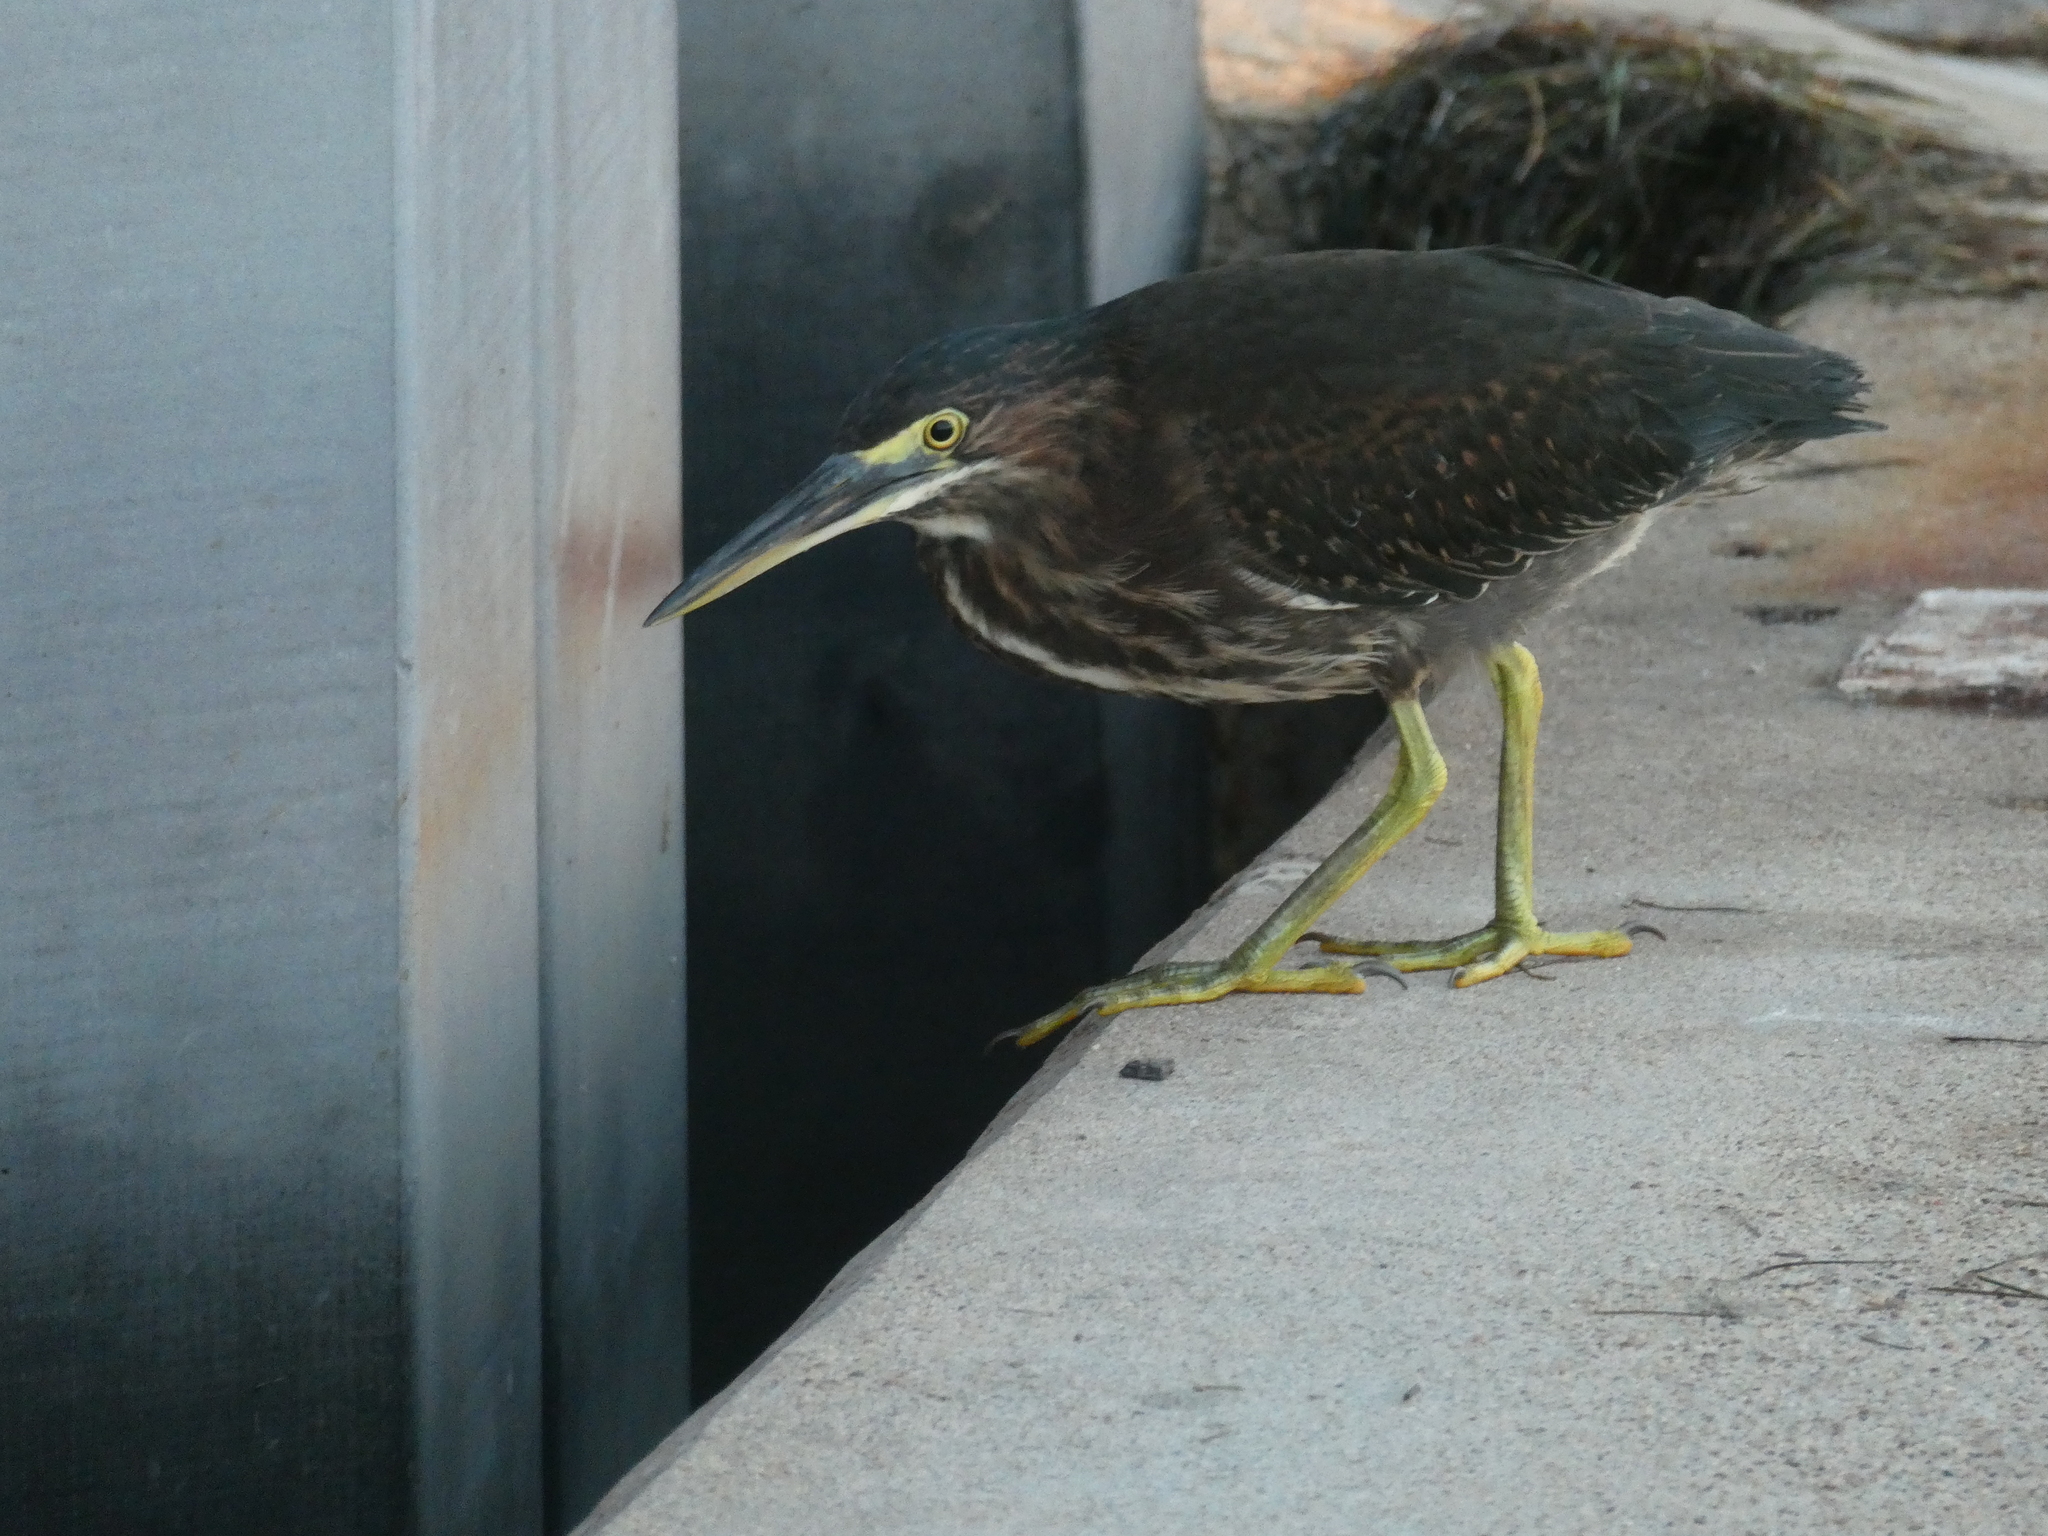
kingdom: Animalia
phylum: Chordata
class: Aves
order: Pelecaniformes
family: Ardeidae
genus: Butorides
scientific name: Butorides virescens
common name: Green heron
